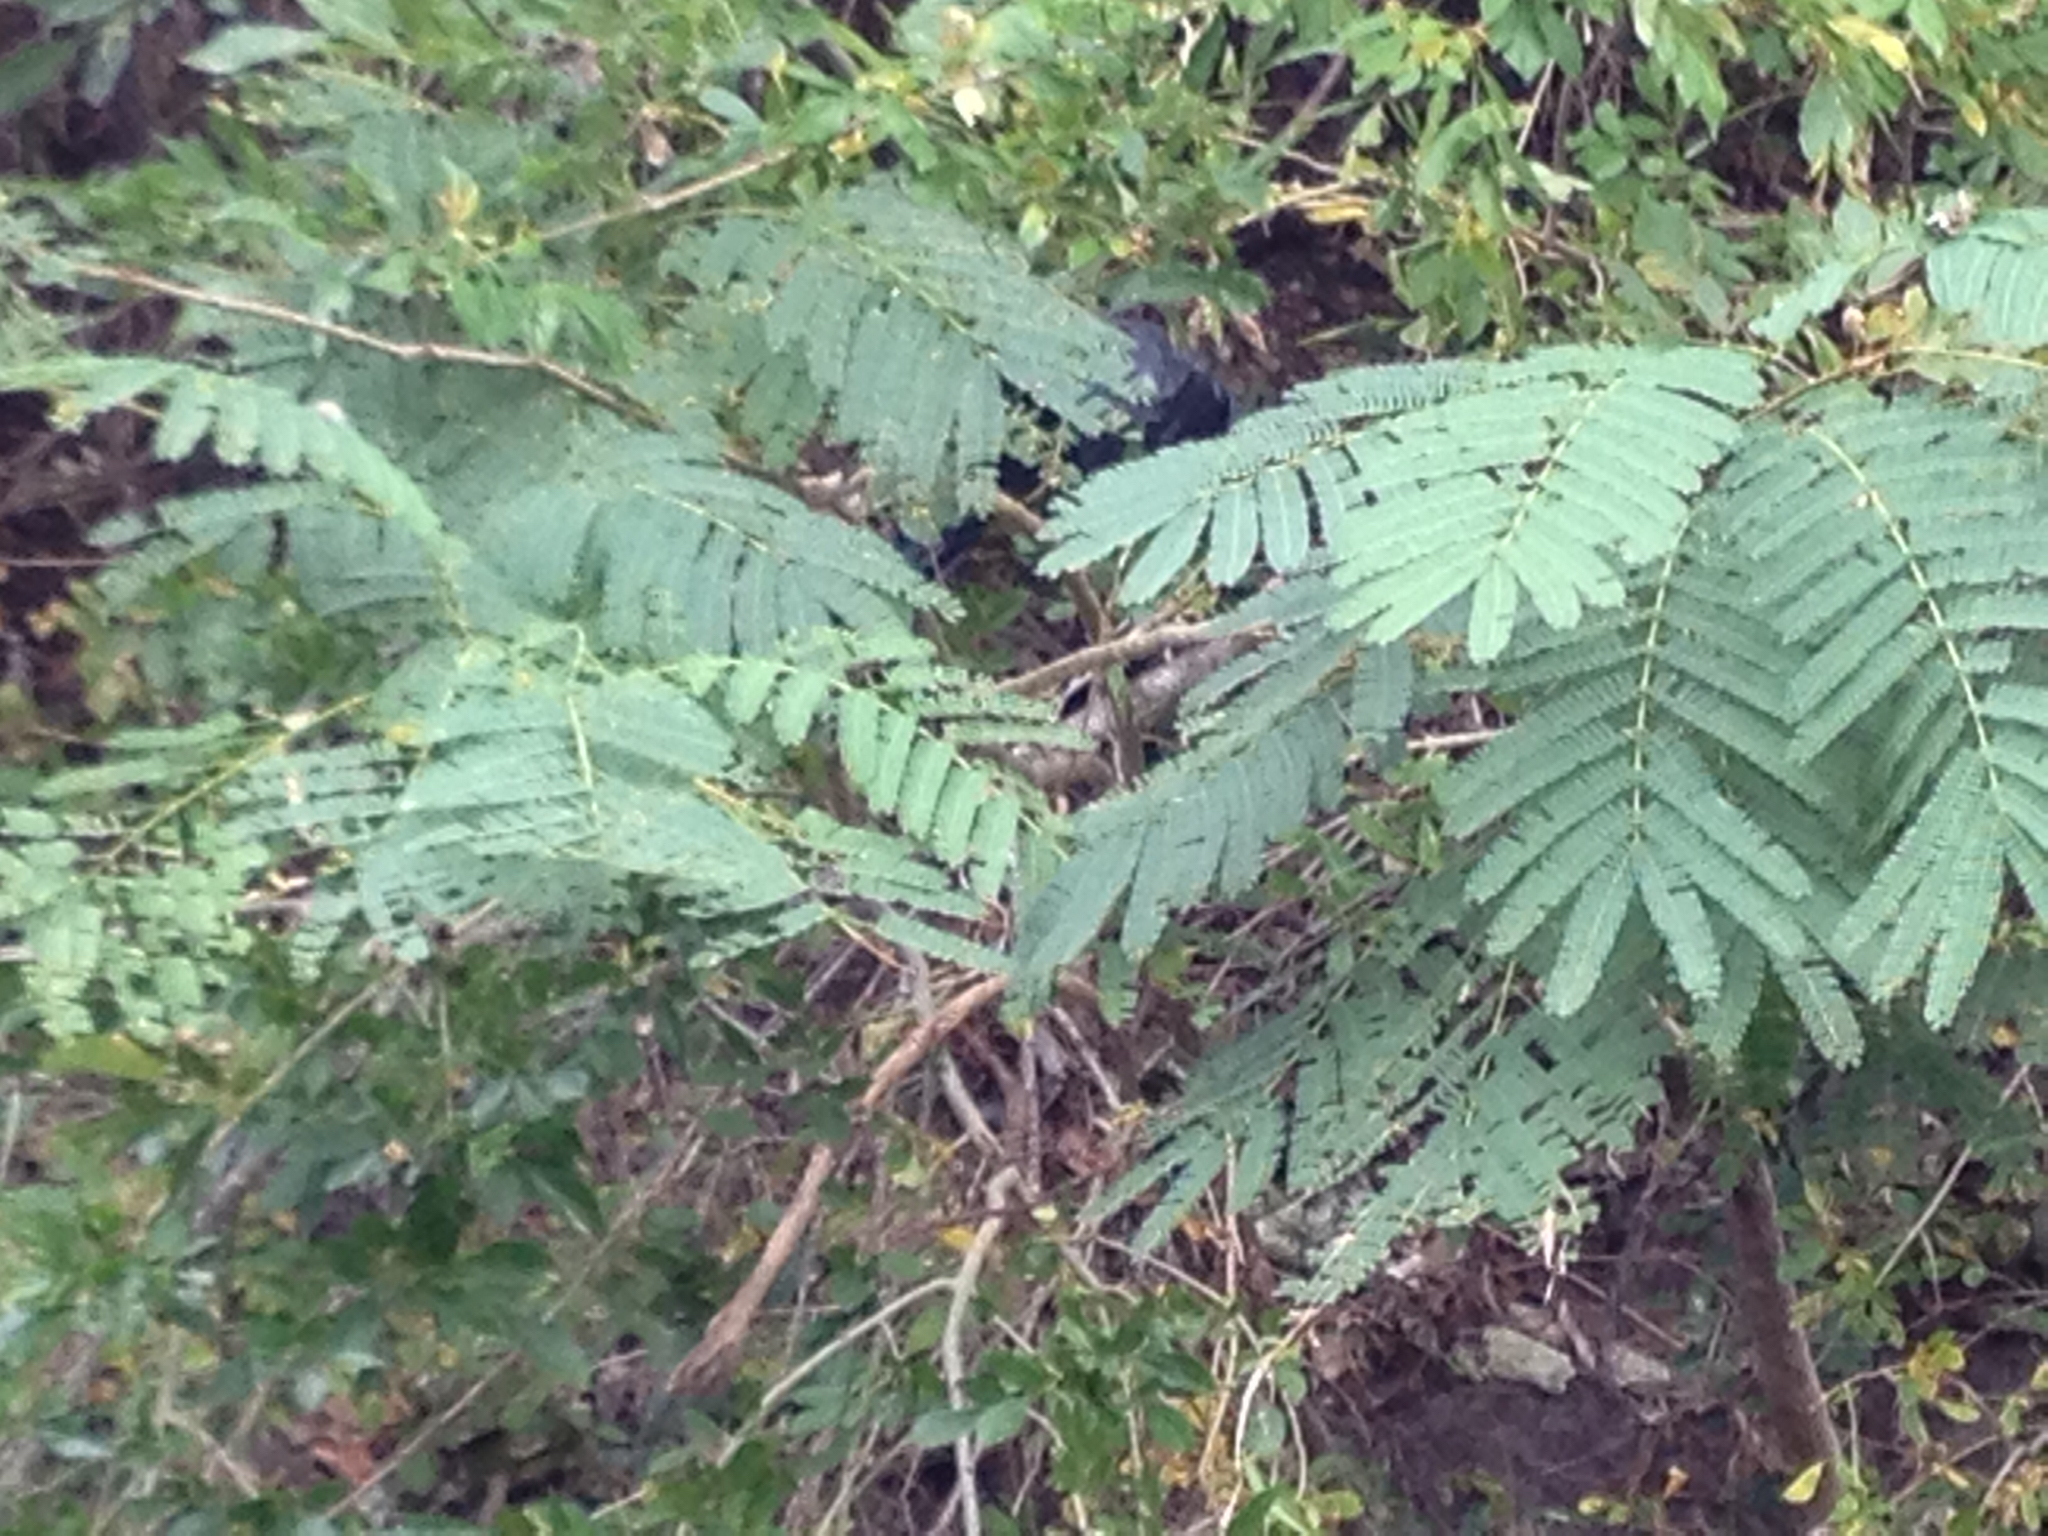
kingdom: Plantae
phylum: Tracheophyta
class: Magnoliopsida
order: Fabales
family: Fabaceae
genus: Albizia
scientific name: Albizia julibrissin
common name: Silktree
